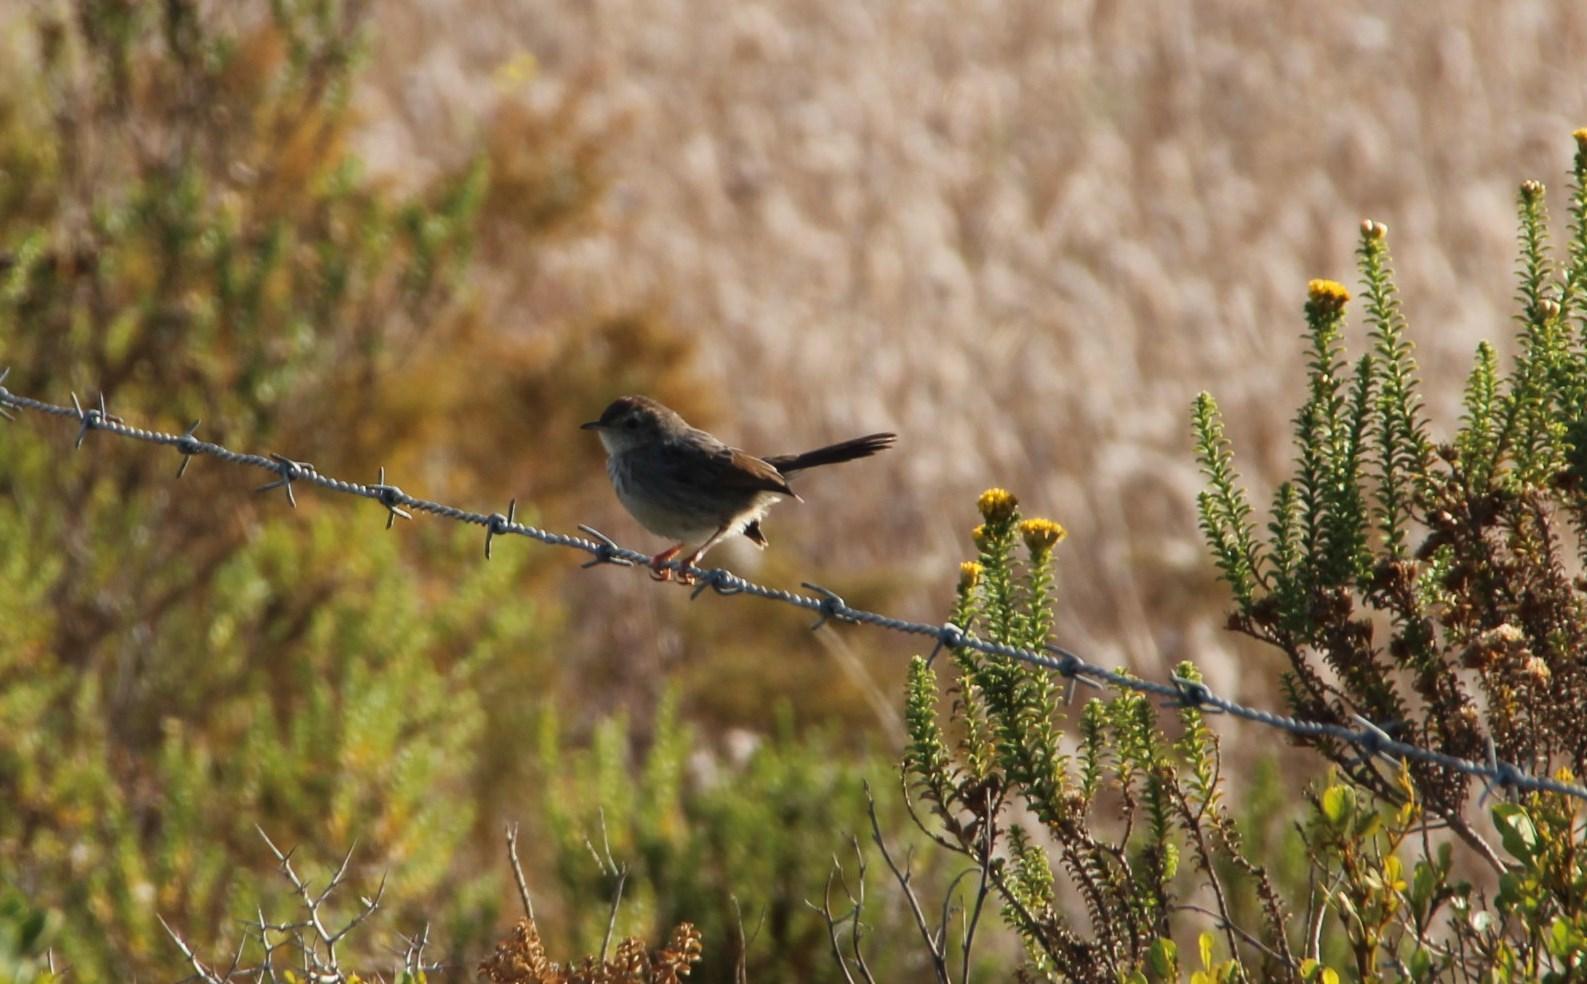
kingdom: Animalia
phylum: Chordata
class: Aves
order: Passeriformes
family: Cisticolidae
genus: Cisticola
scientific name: Cisticola fulvicapilla
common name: Neddicky
